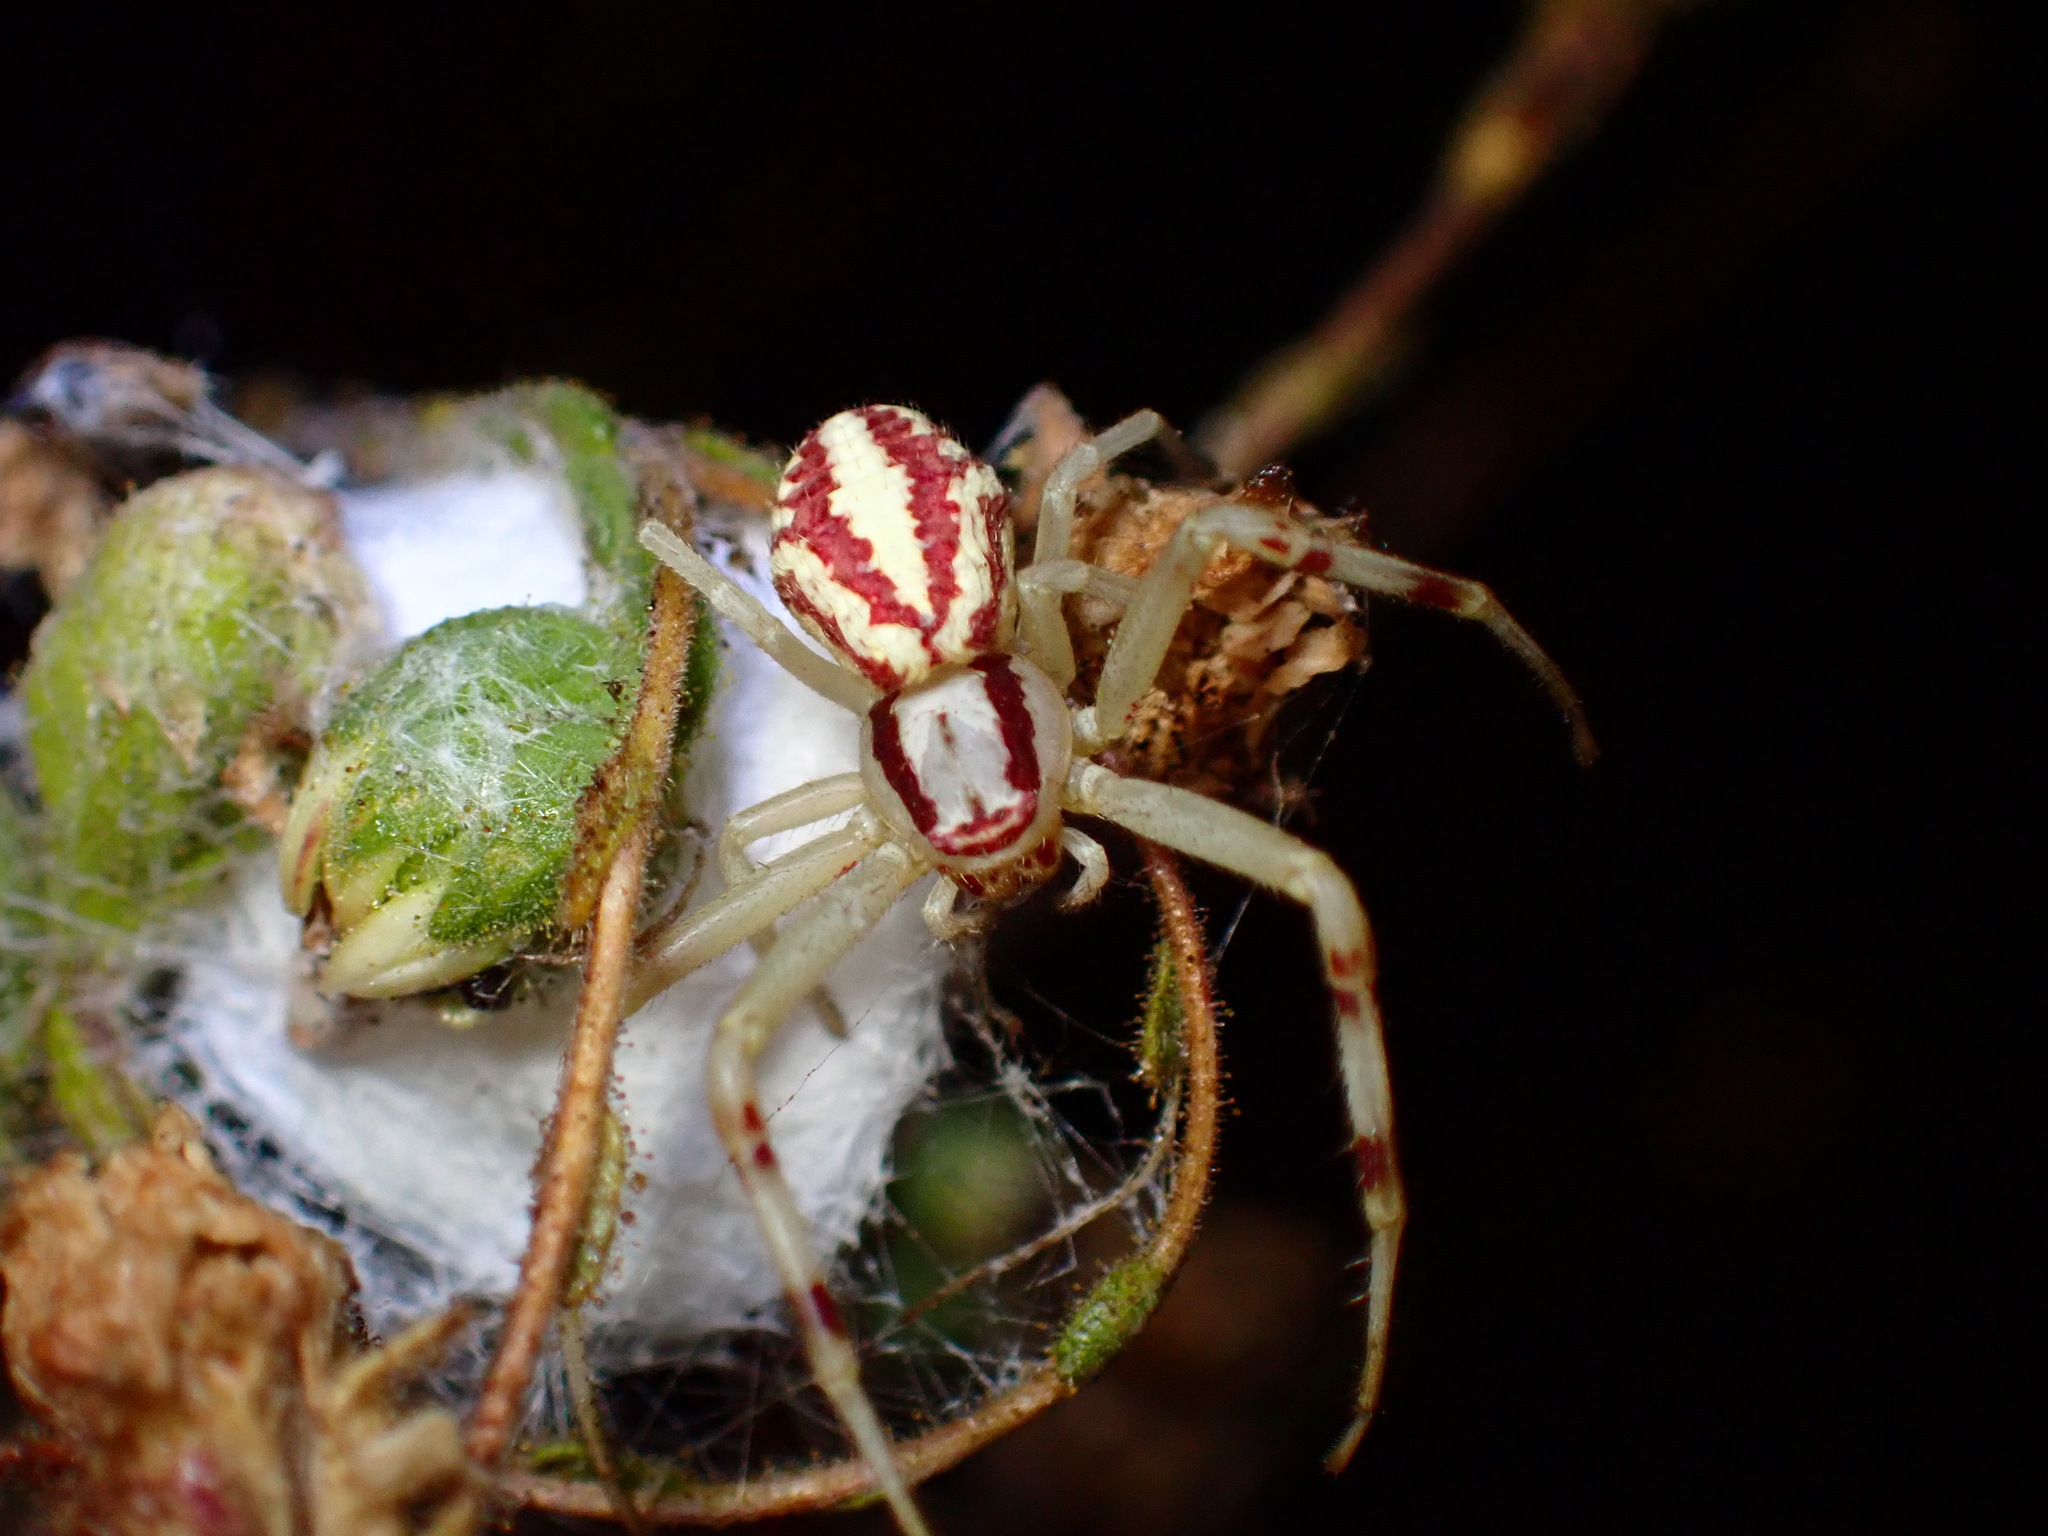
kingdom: Animalia
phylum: Arthropoda
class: Arachnida
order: Araneae
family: Thomisidae
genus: Mecaphesa
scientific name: Mecaphesa schlingeri
